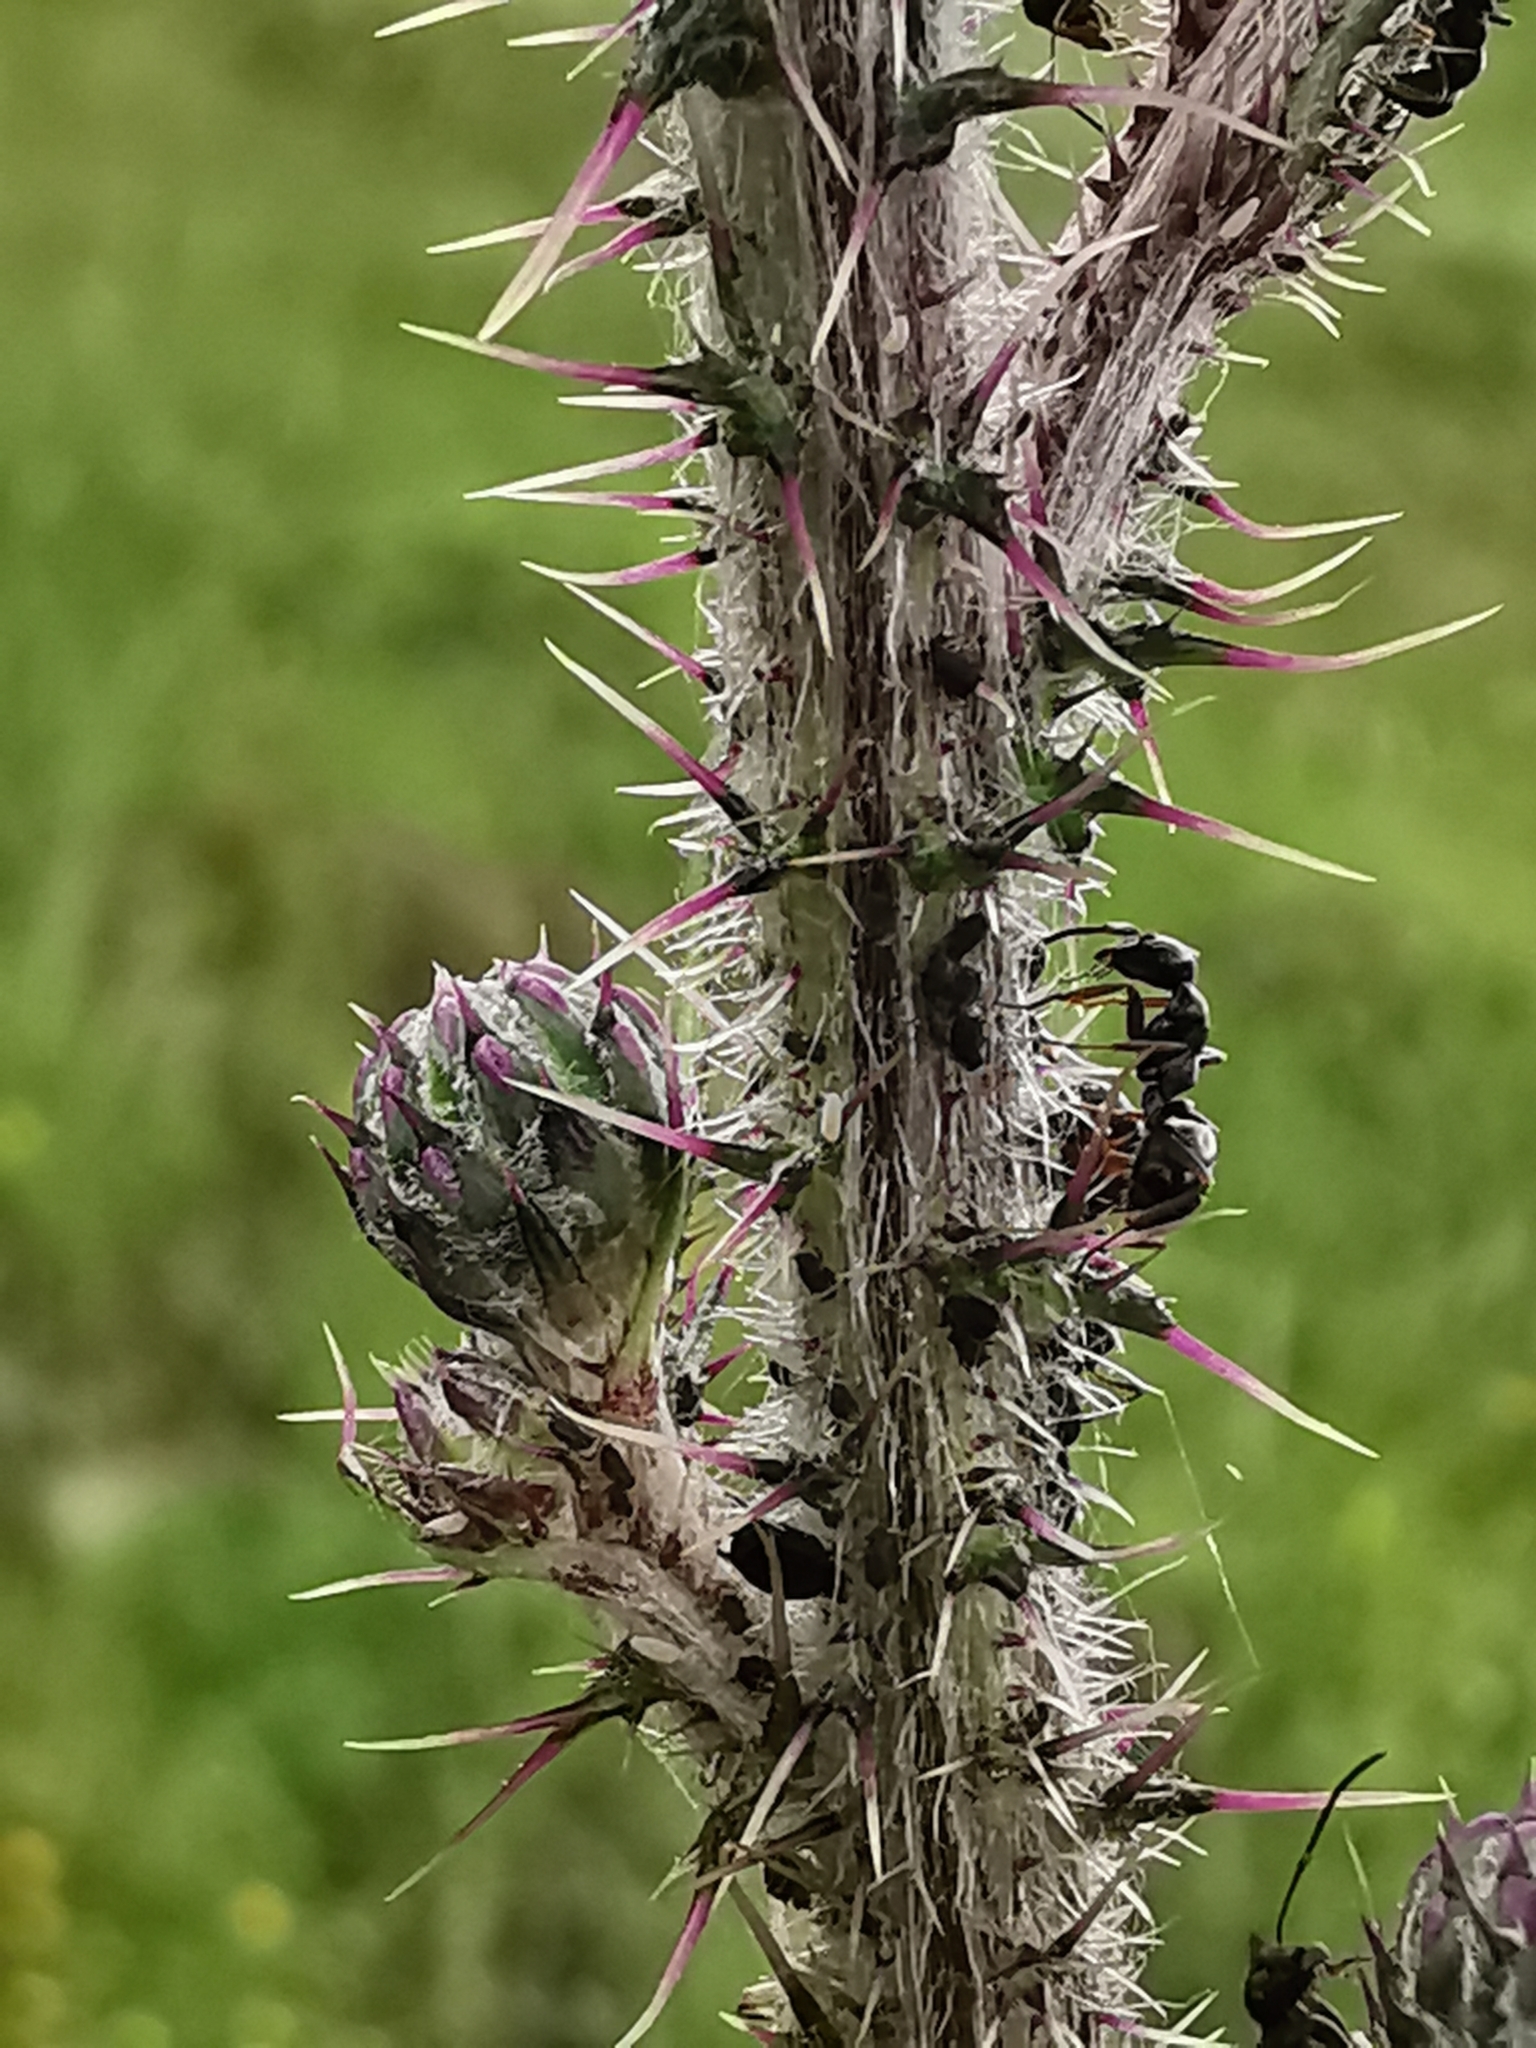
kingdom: Plantae
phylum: Tracheophyta
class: Magnoliopsida
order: Asterales
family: Asteraceae
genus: Cirsium
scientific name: Cirsium palustre
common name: Marsh thistle
